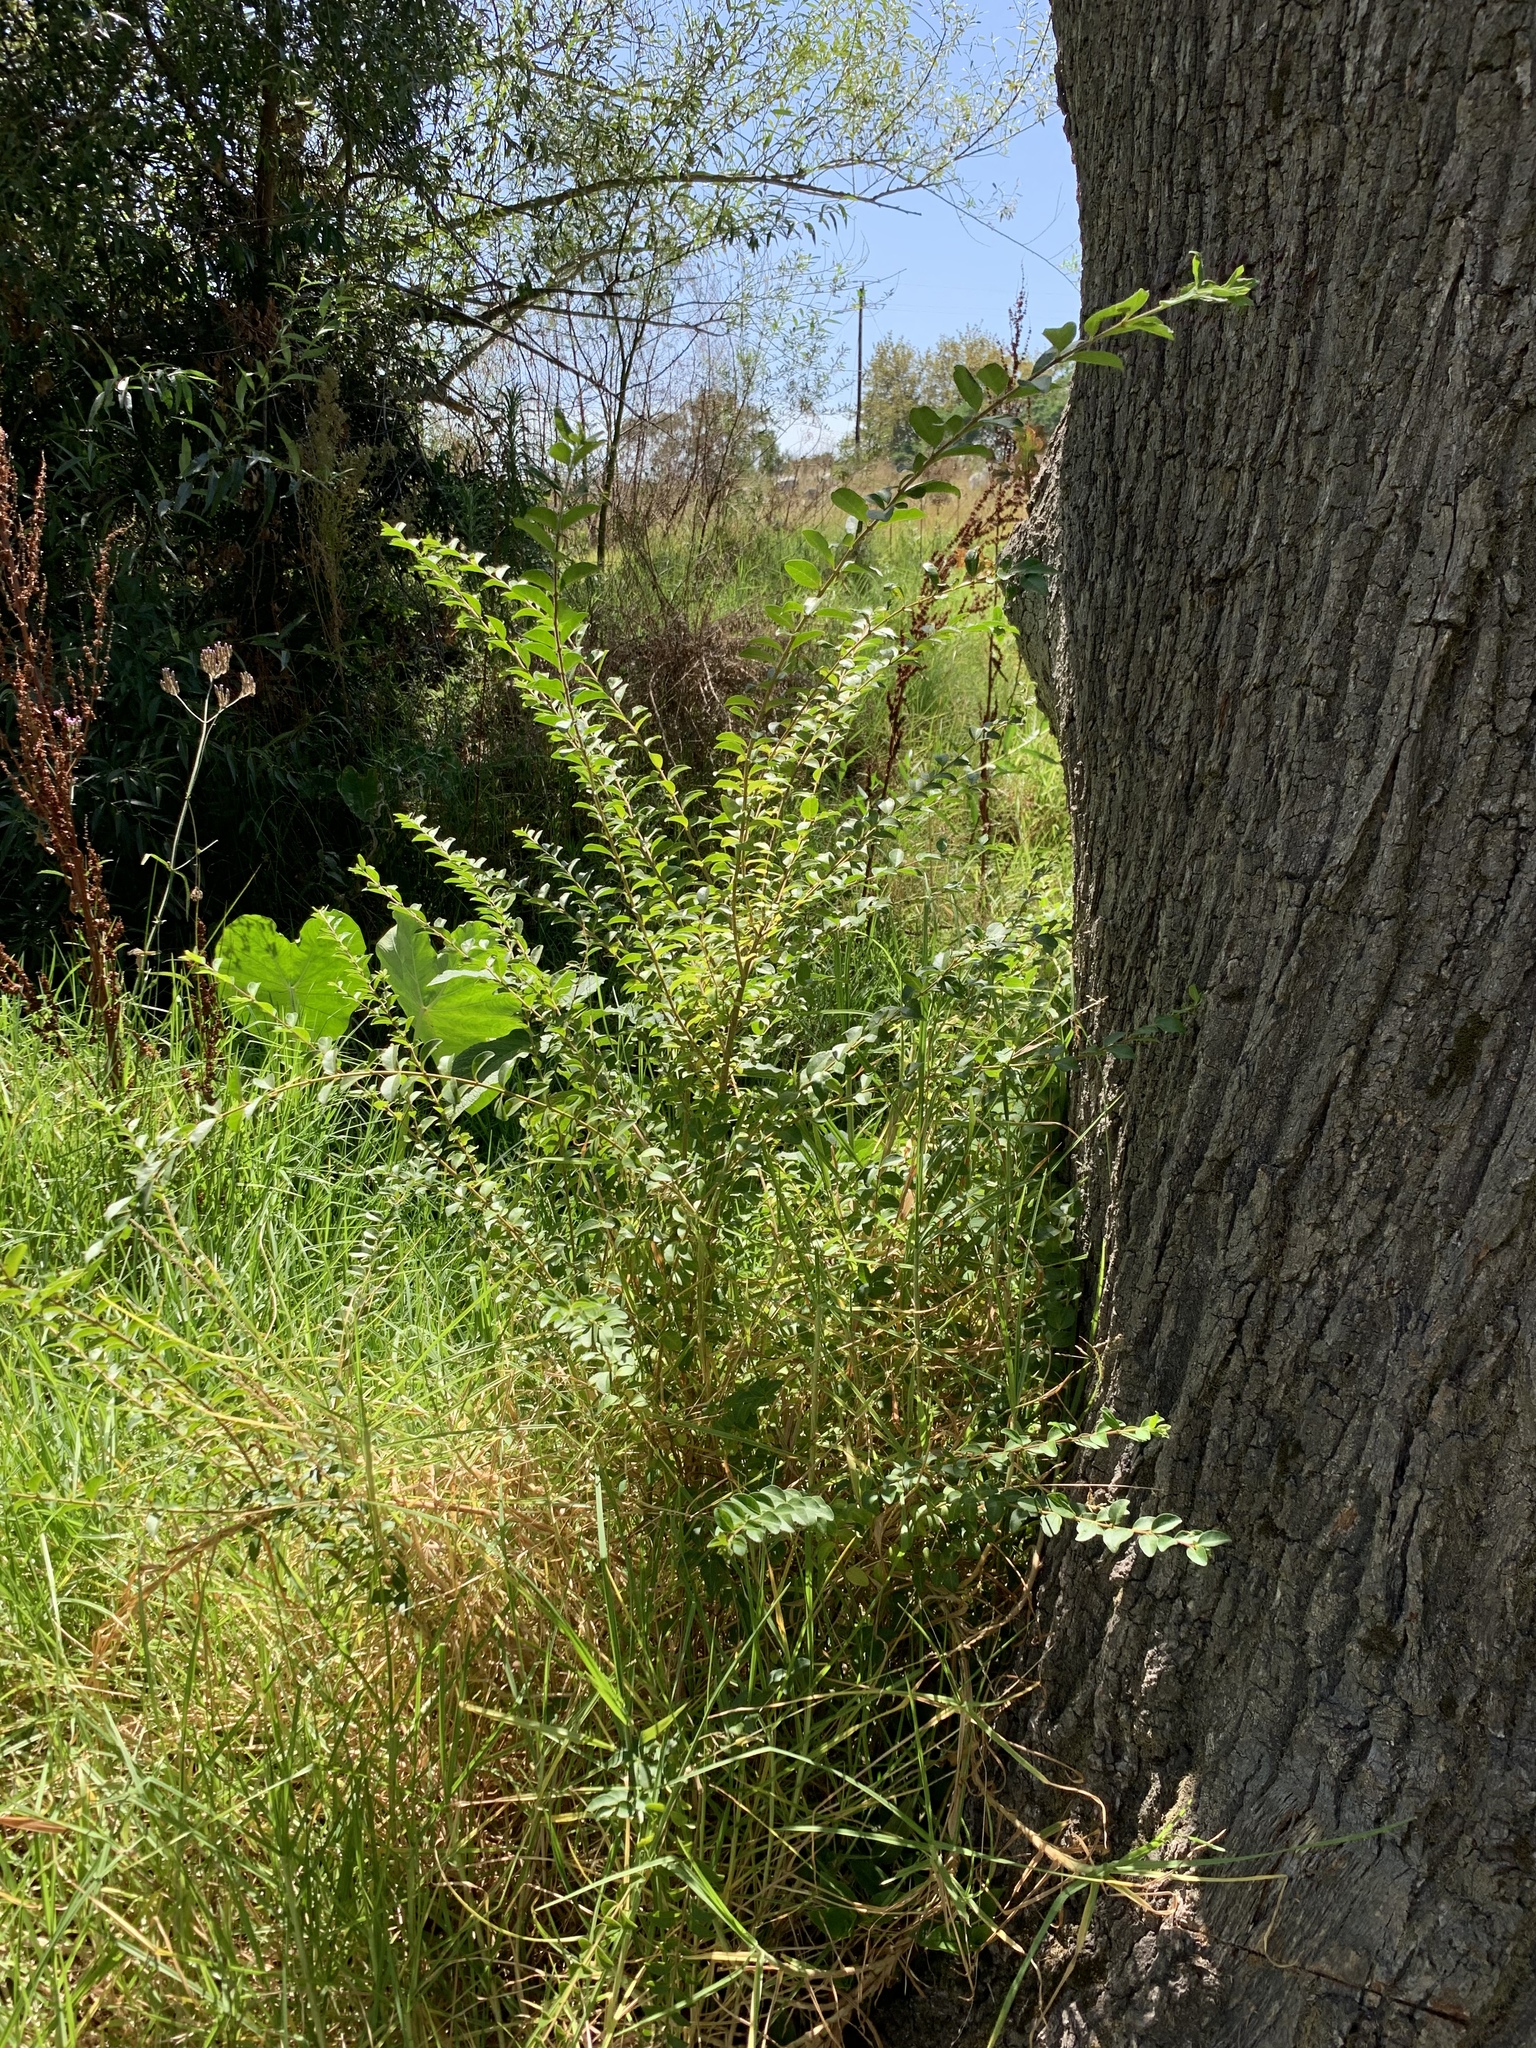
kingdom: Plantae
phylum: Tracheophyta
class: Magnoliopsida
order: Lamiales
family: Oleaceae
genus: Ligustrum
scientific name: Ligustrum sinense
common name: Chinese privet
